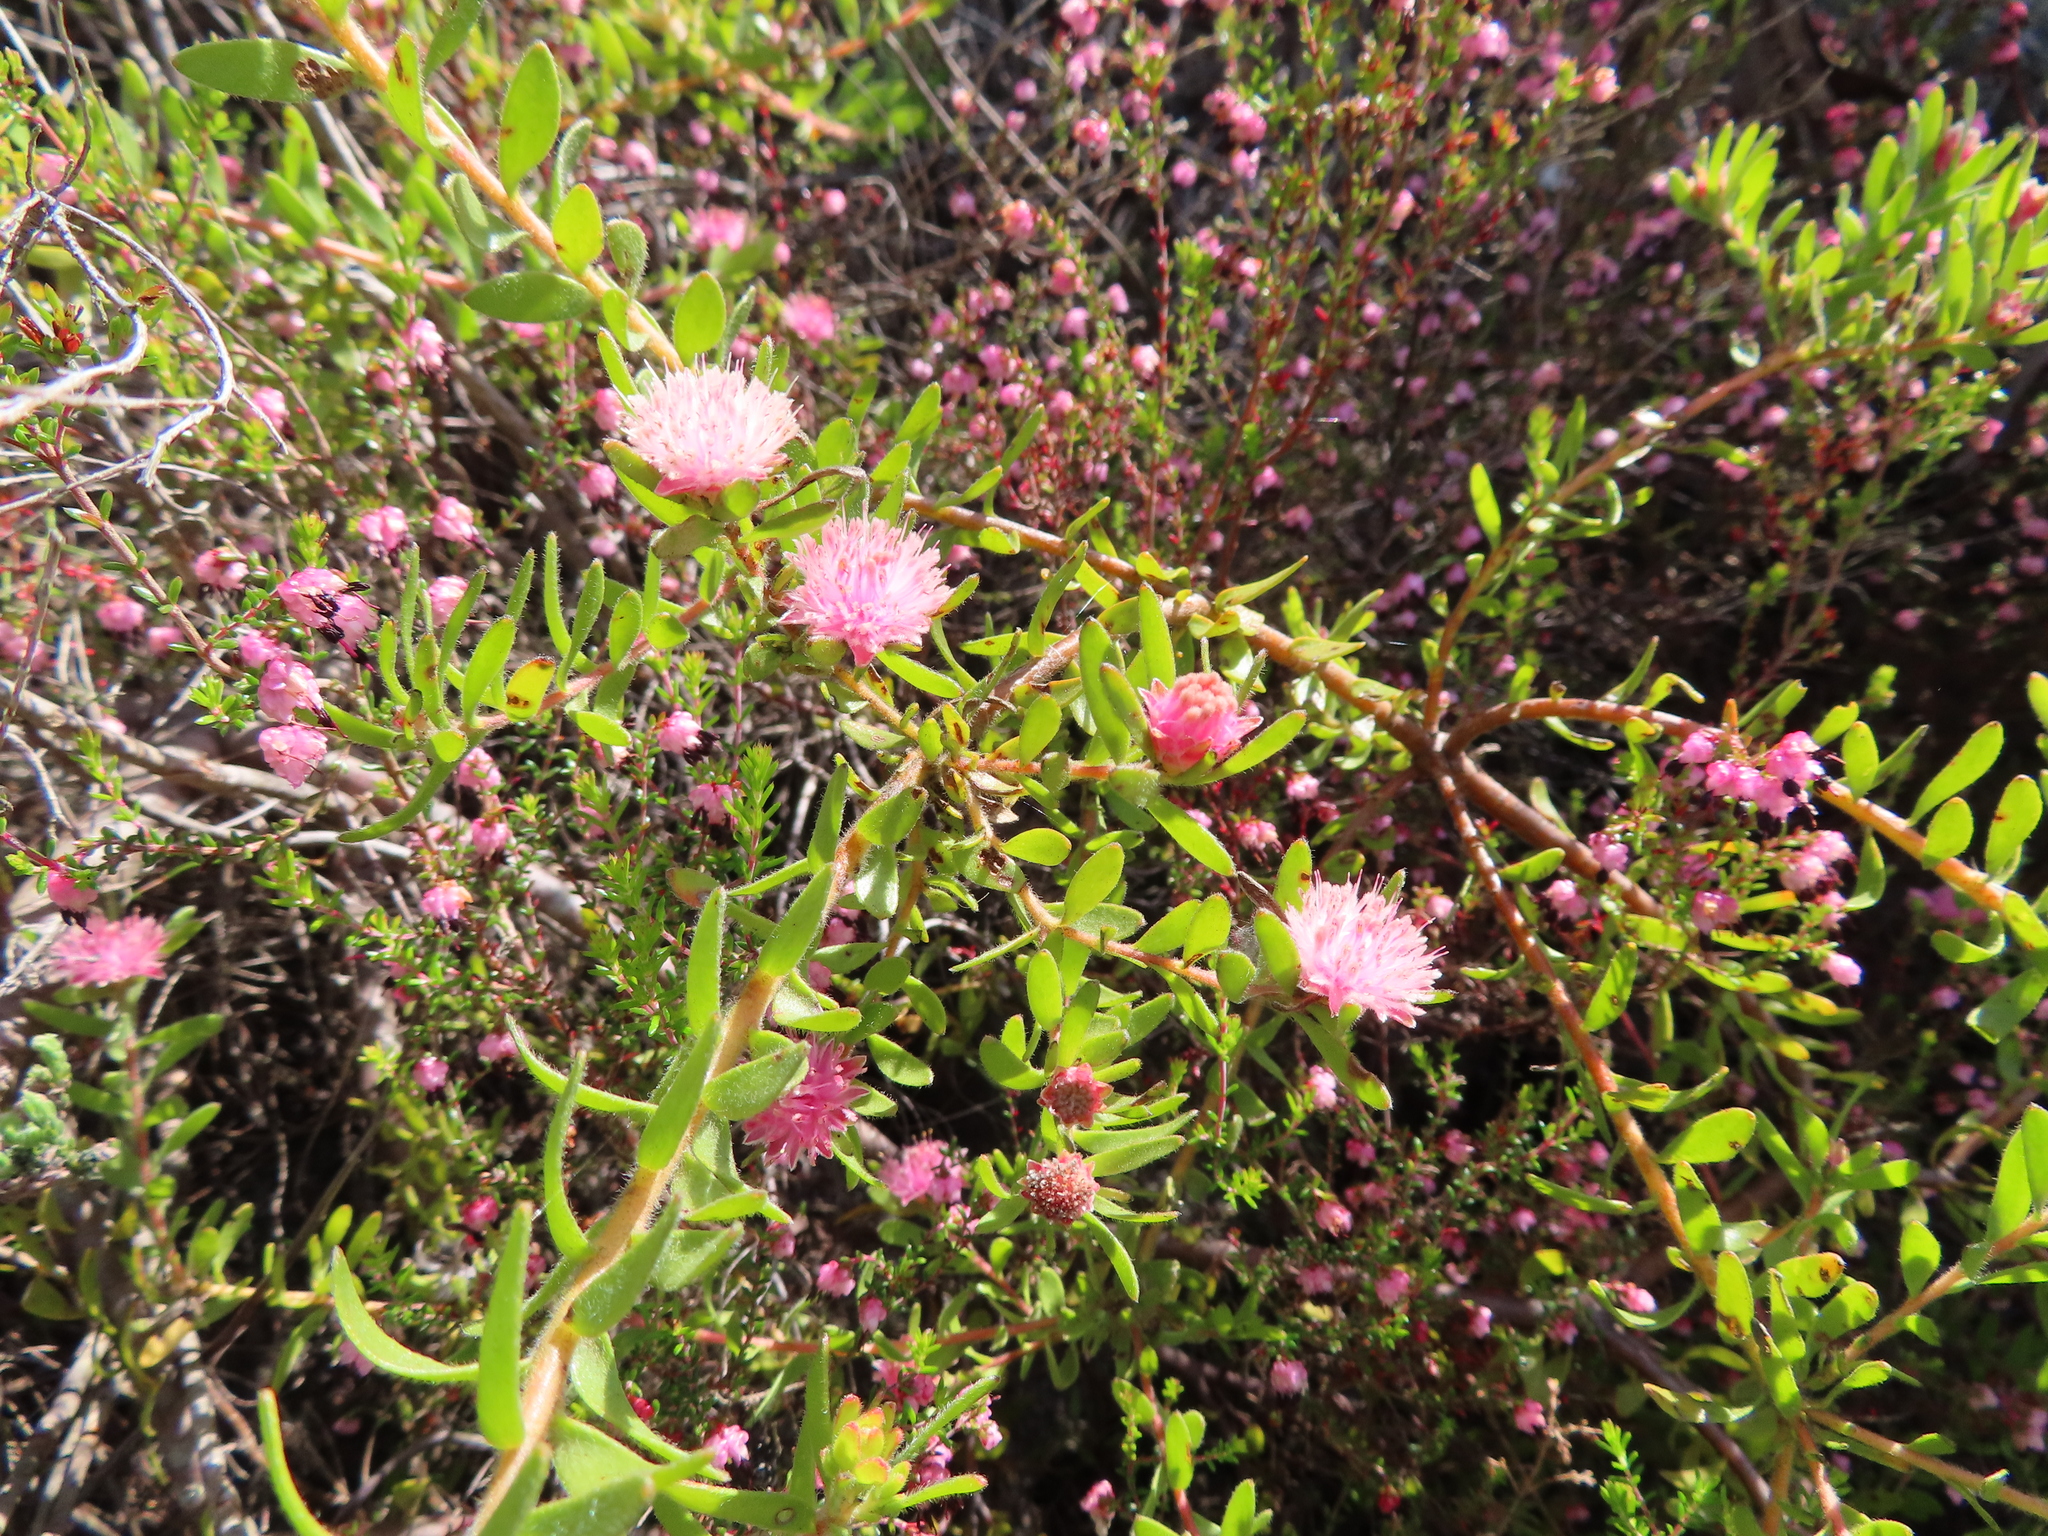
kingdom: Plantae
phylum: Tracheophyta
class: Magnoliopsida
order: Proteales
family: Proteaceae
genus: Diastella
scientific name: Diastella divaricata
